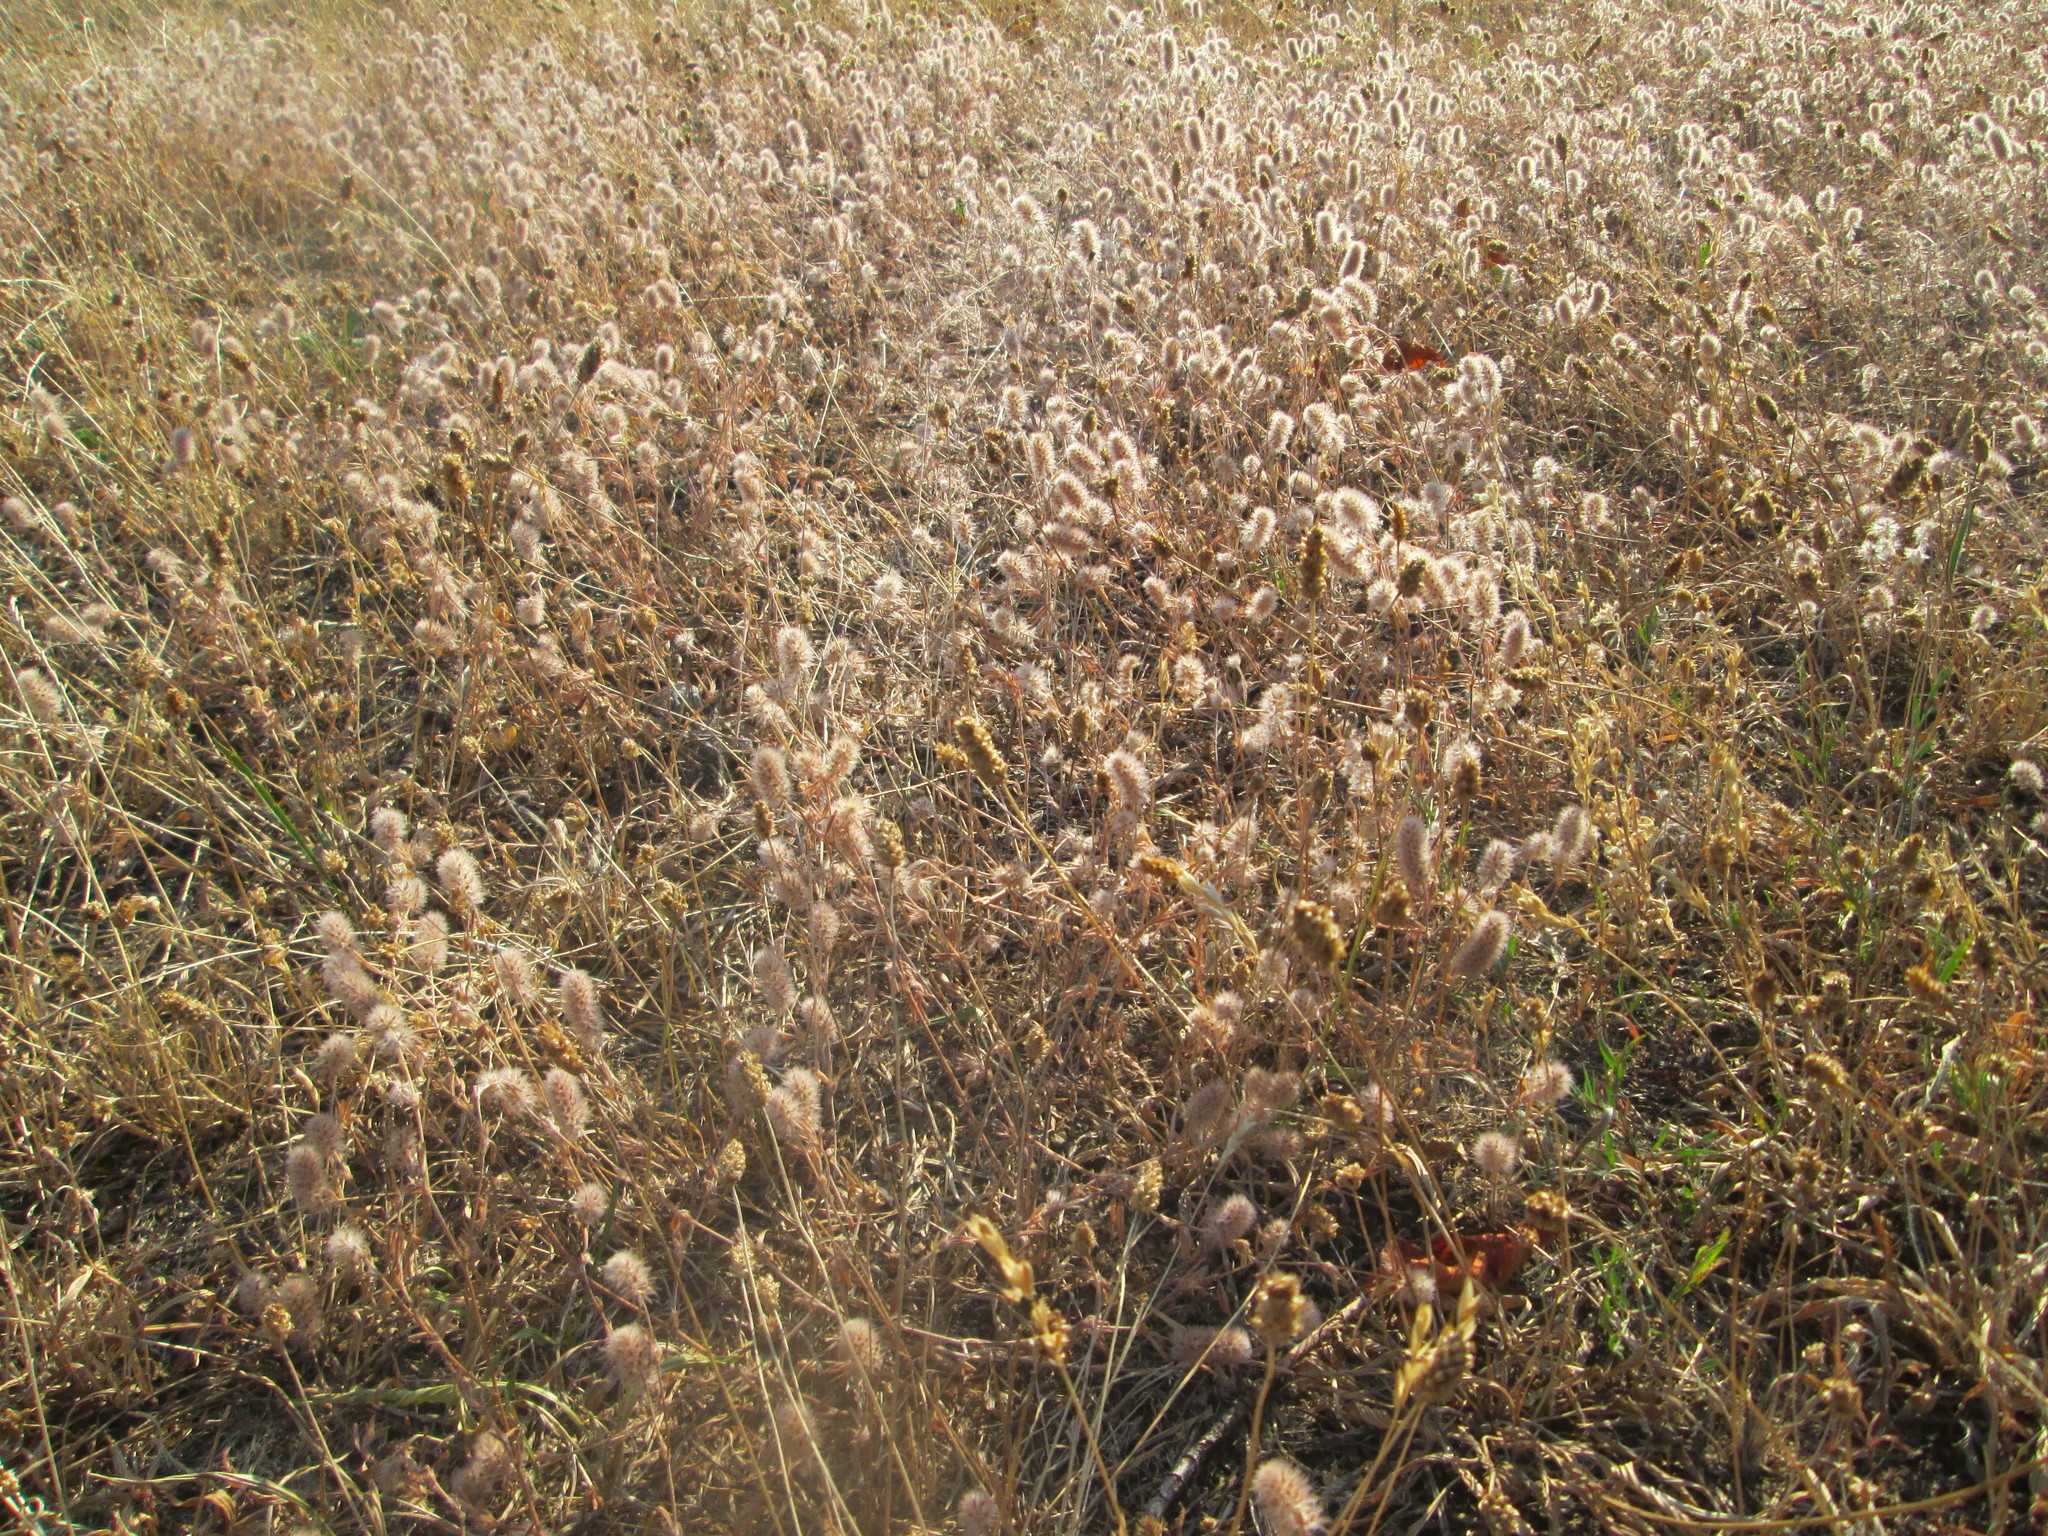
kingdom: Plantae
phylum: Tracheophyta
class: Magnoliopsida
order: Fabales
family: Fabaceae
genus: Trifolium
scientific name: Trifolium arvense
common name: Hare's-foot clover
